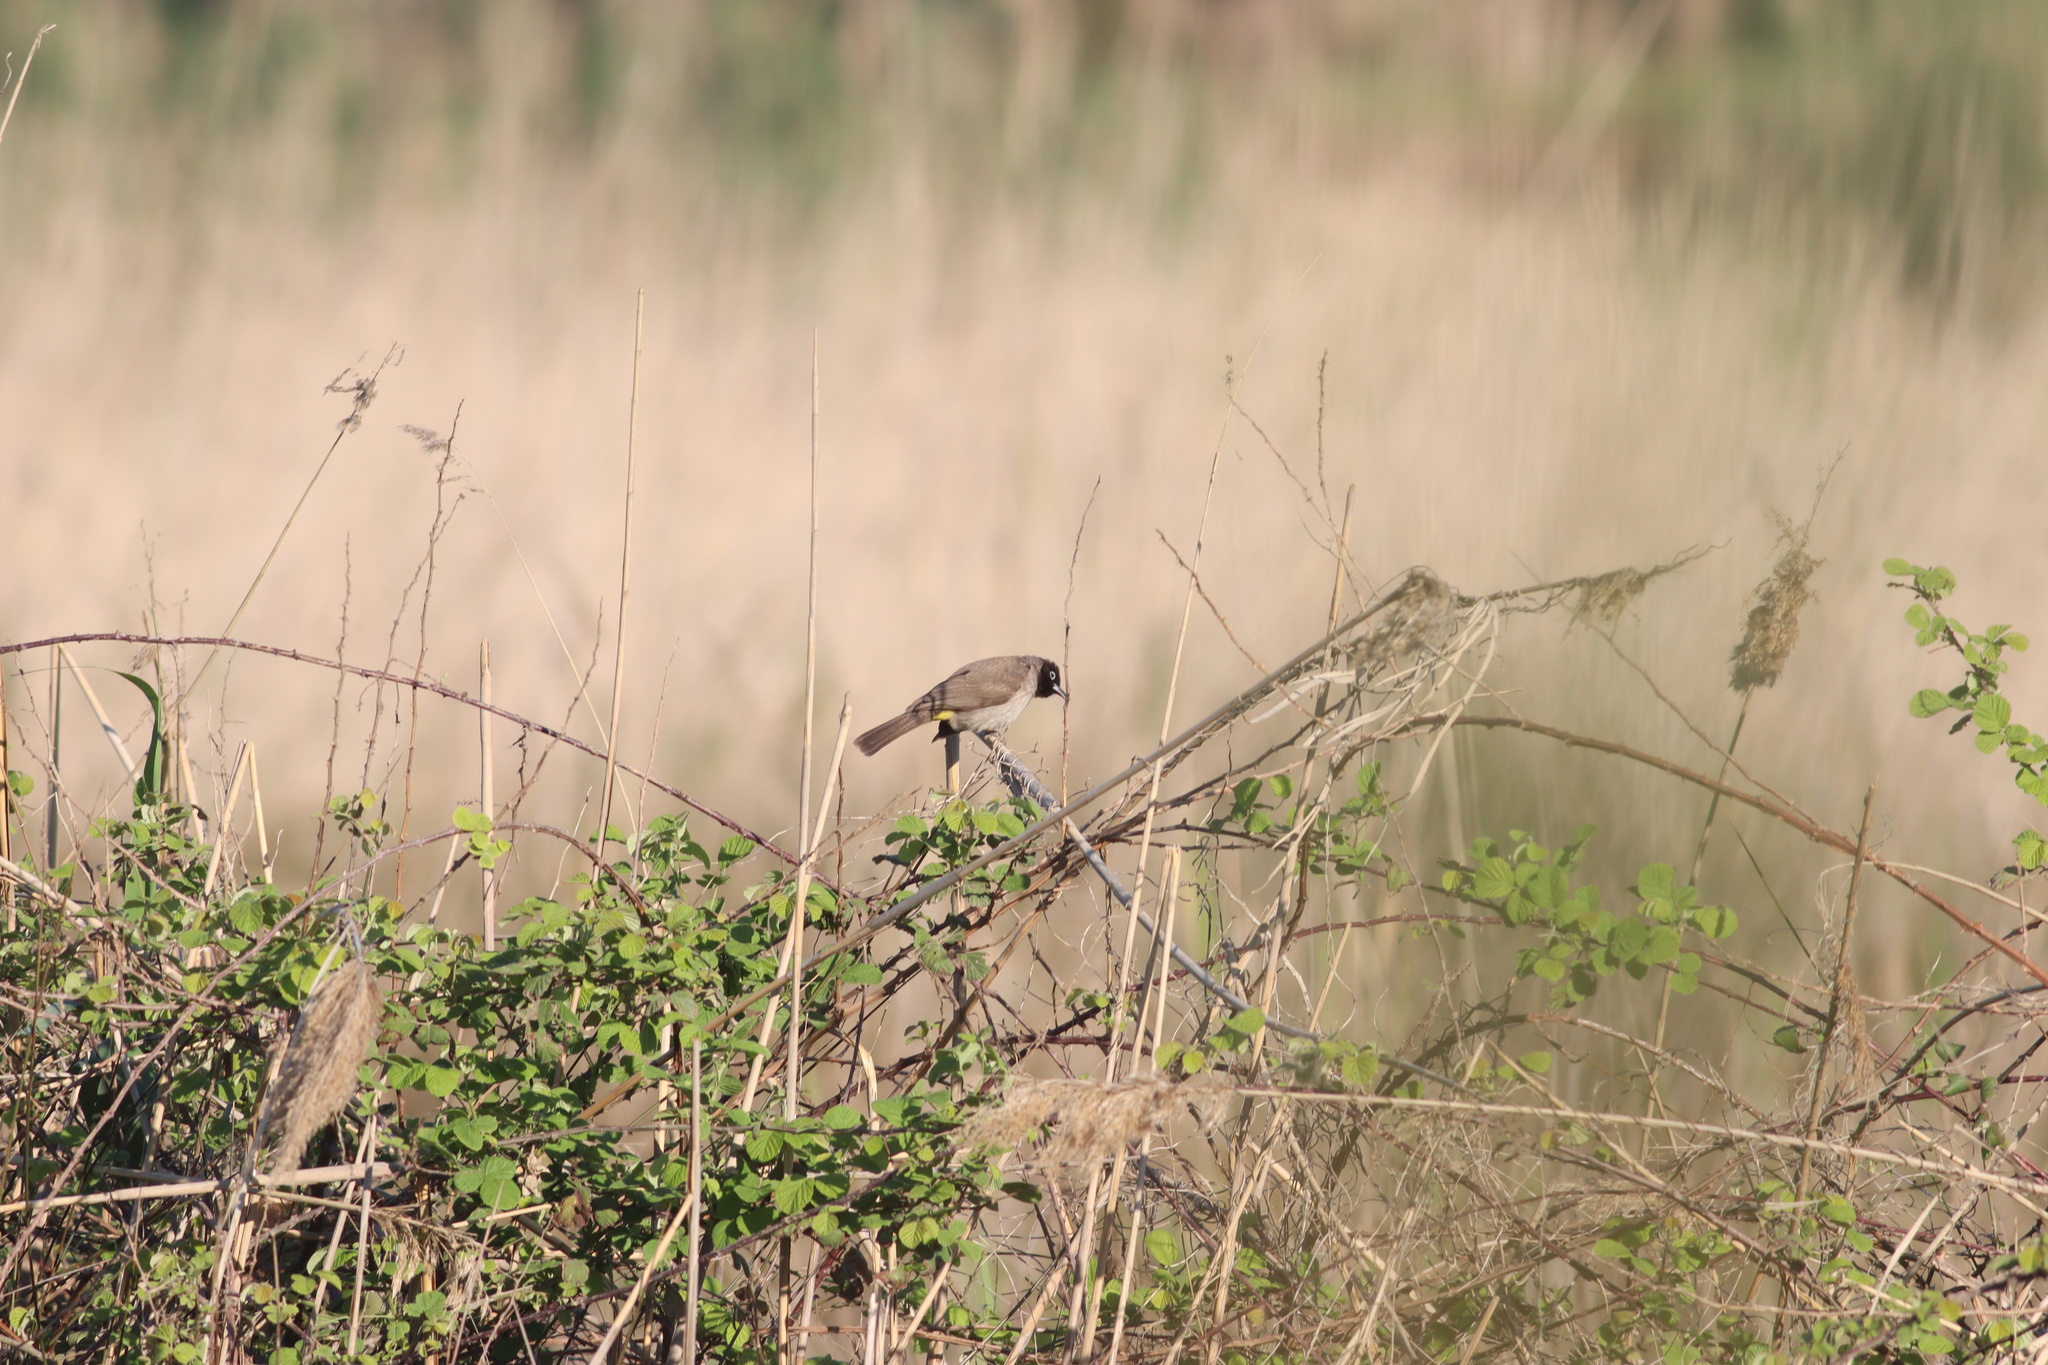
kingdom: Animalia
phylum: Chordata
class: Aves
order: Passeriformes
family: Pycnonotidae
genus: Pycnonotus
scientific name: Pycnonotus xanthopygos
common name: White-spectacled bulbul
